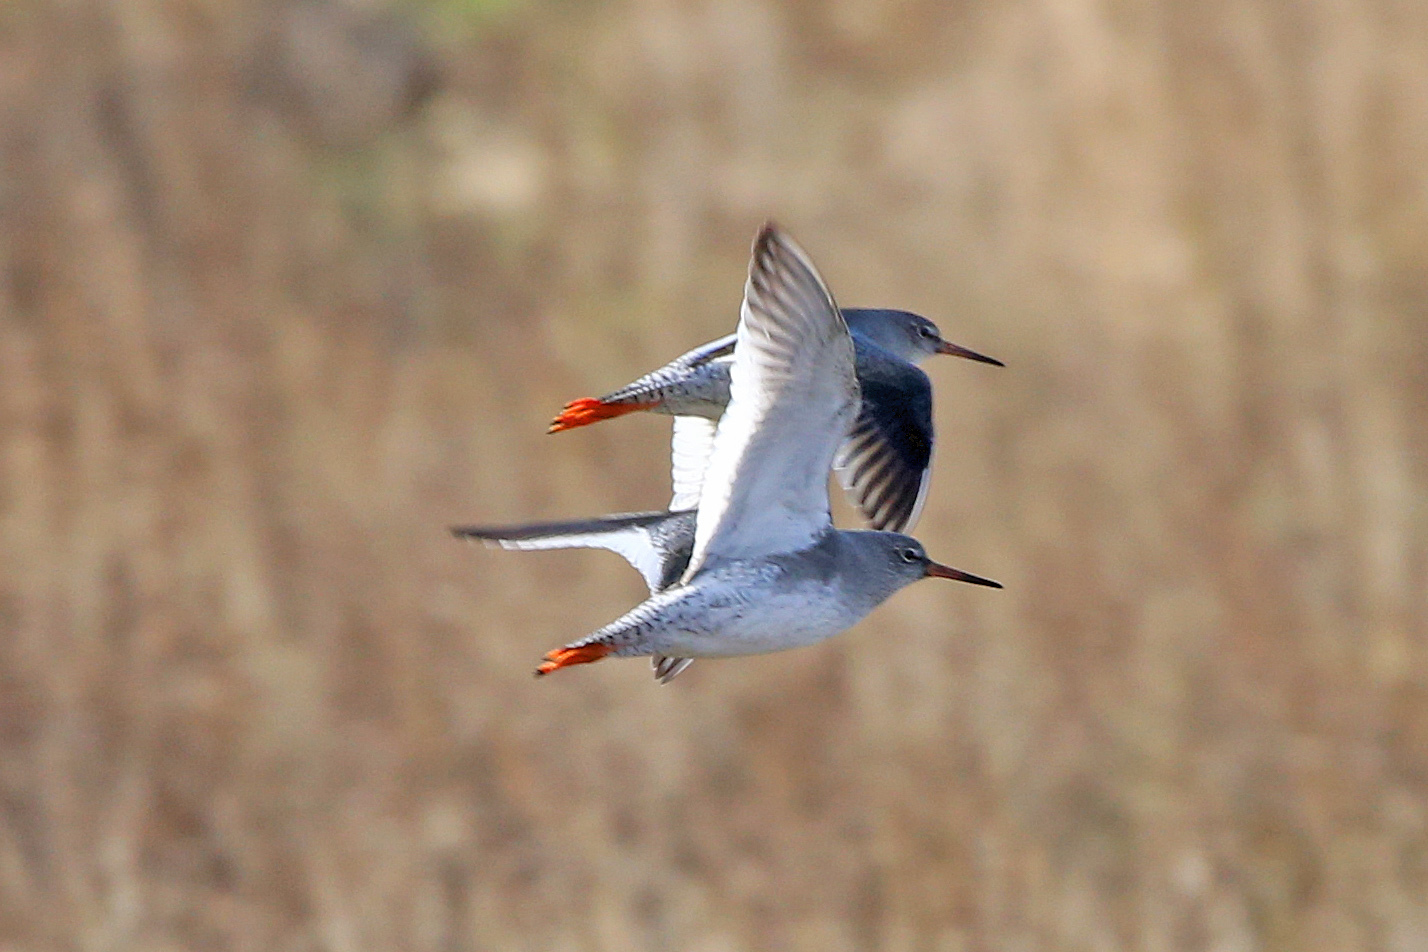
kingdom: Animalia
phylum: Chordata
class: Aves
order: Charadriiformes
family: Scolopacidae
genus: Tringa
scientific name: Tringa totanus
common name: Common redshank
